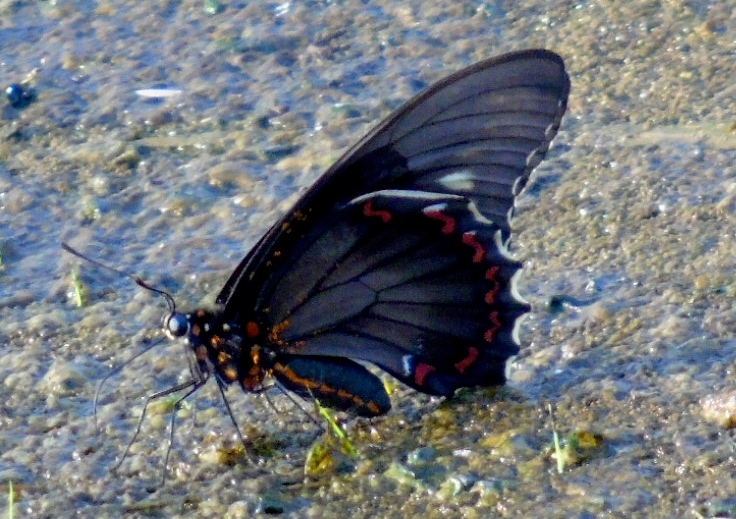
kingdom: Animalia
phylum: Arthropoda
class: Insecta
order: Lepidoptera
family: Papilionidae
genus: Battus
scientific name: Battus polydamas
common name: Polydamas swallowtail
